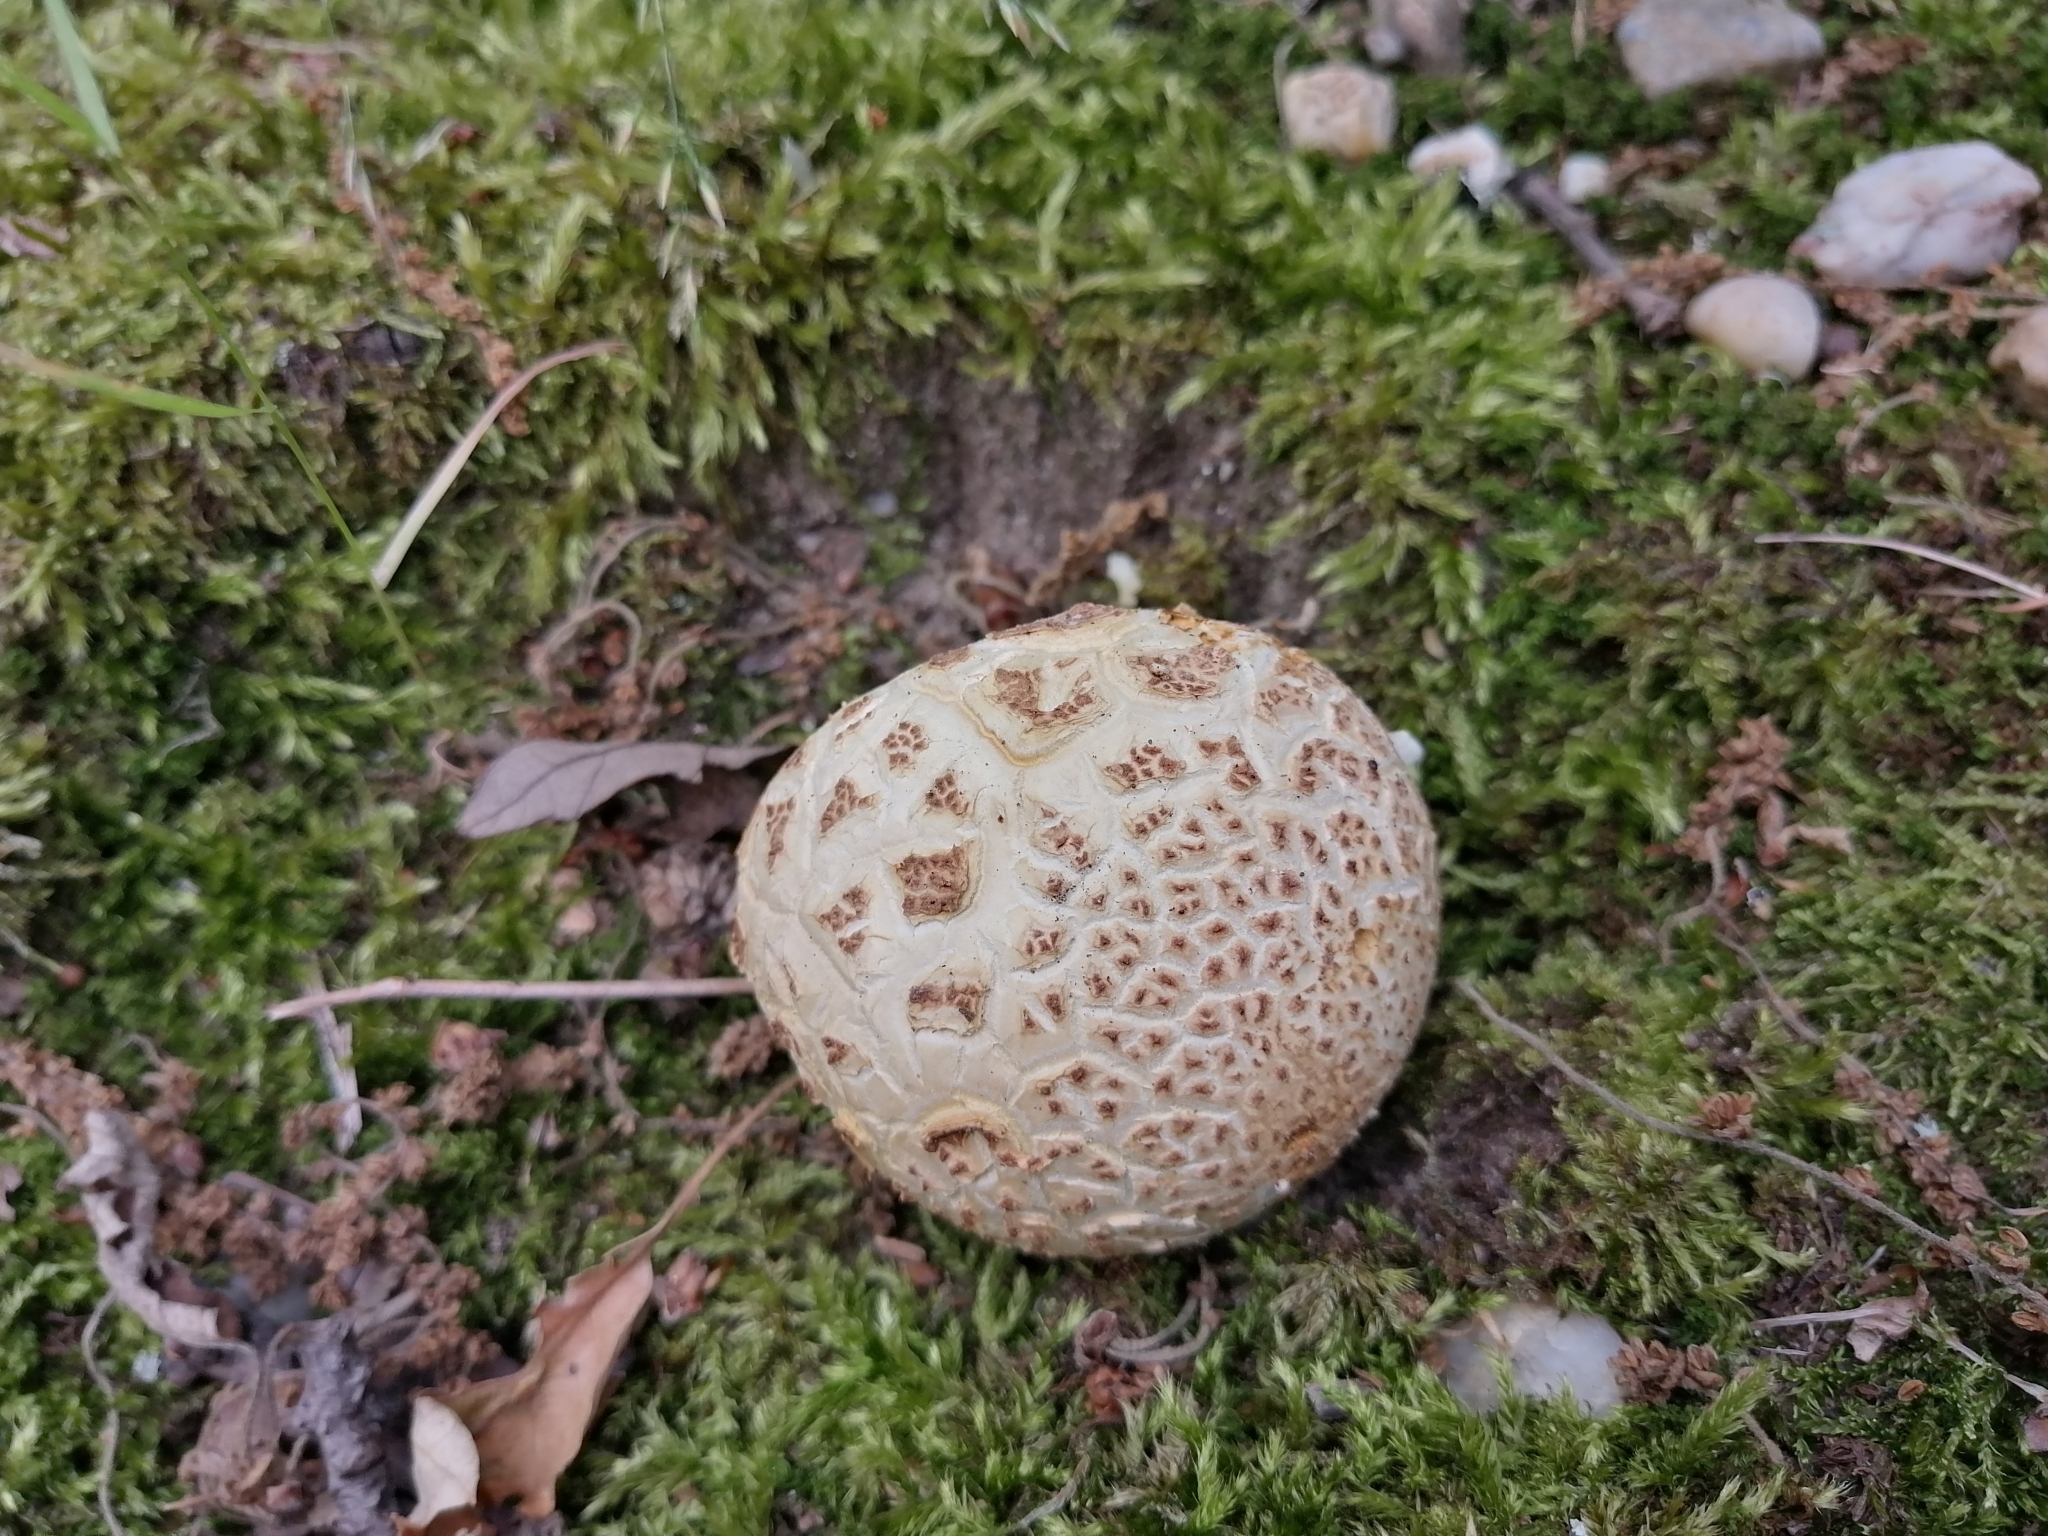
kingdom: Fungi
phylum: Basidiomycota
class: Agaricomycetes
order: Boletales
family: Sclerodermataceae
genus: Scleroderma
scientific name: Scleroderma citrinum
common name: Common earthball
